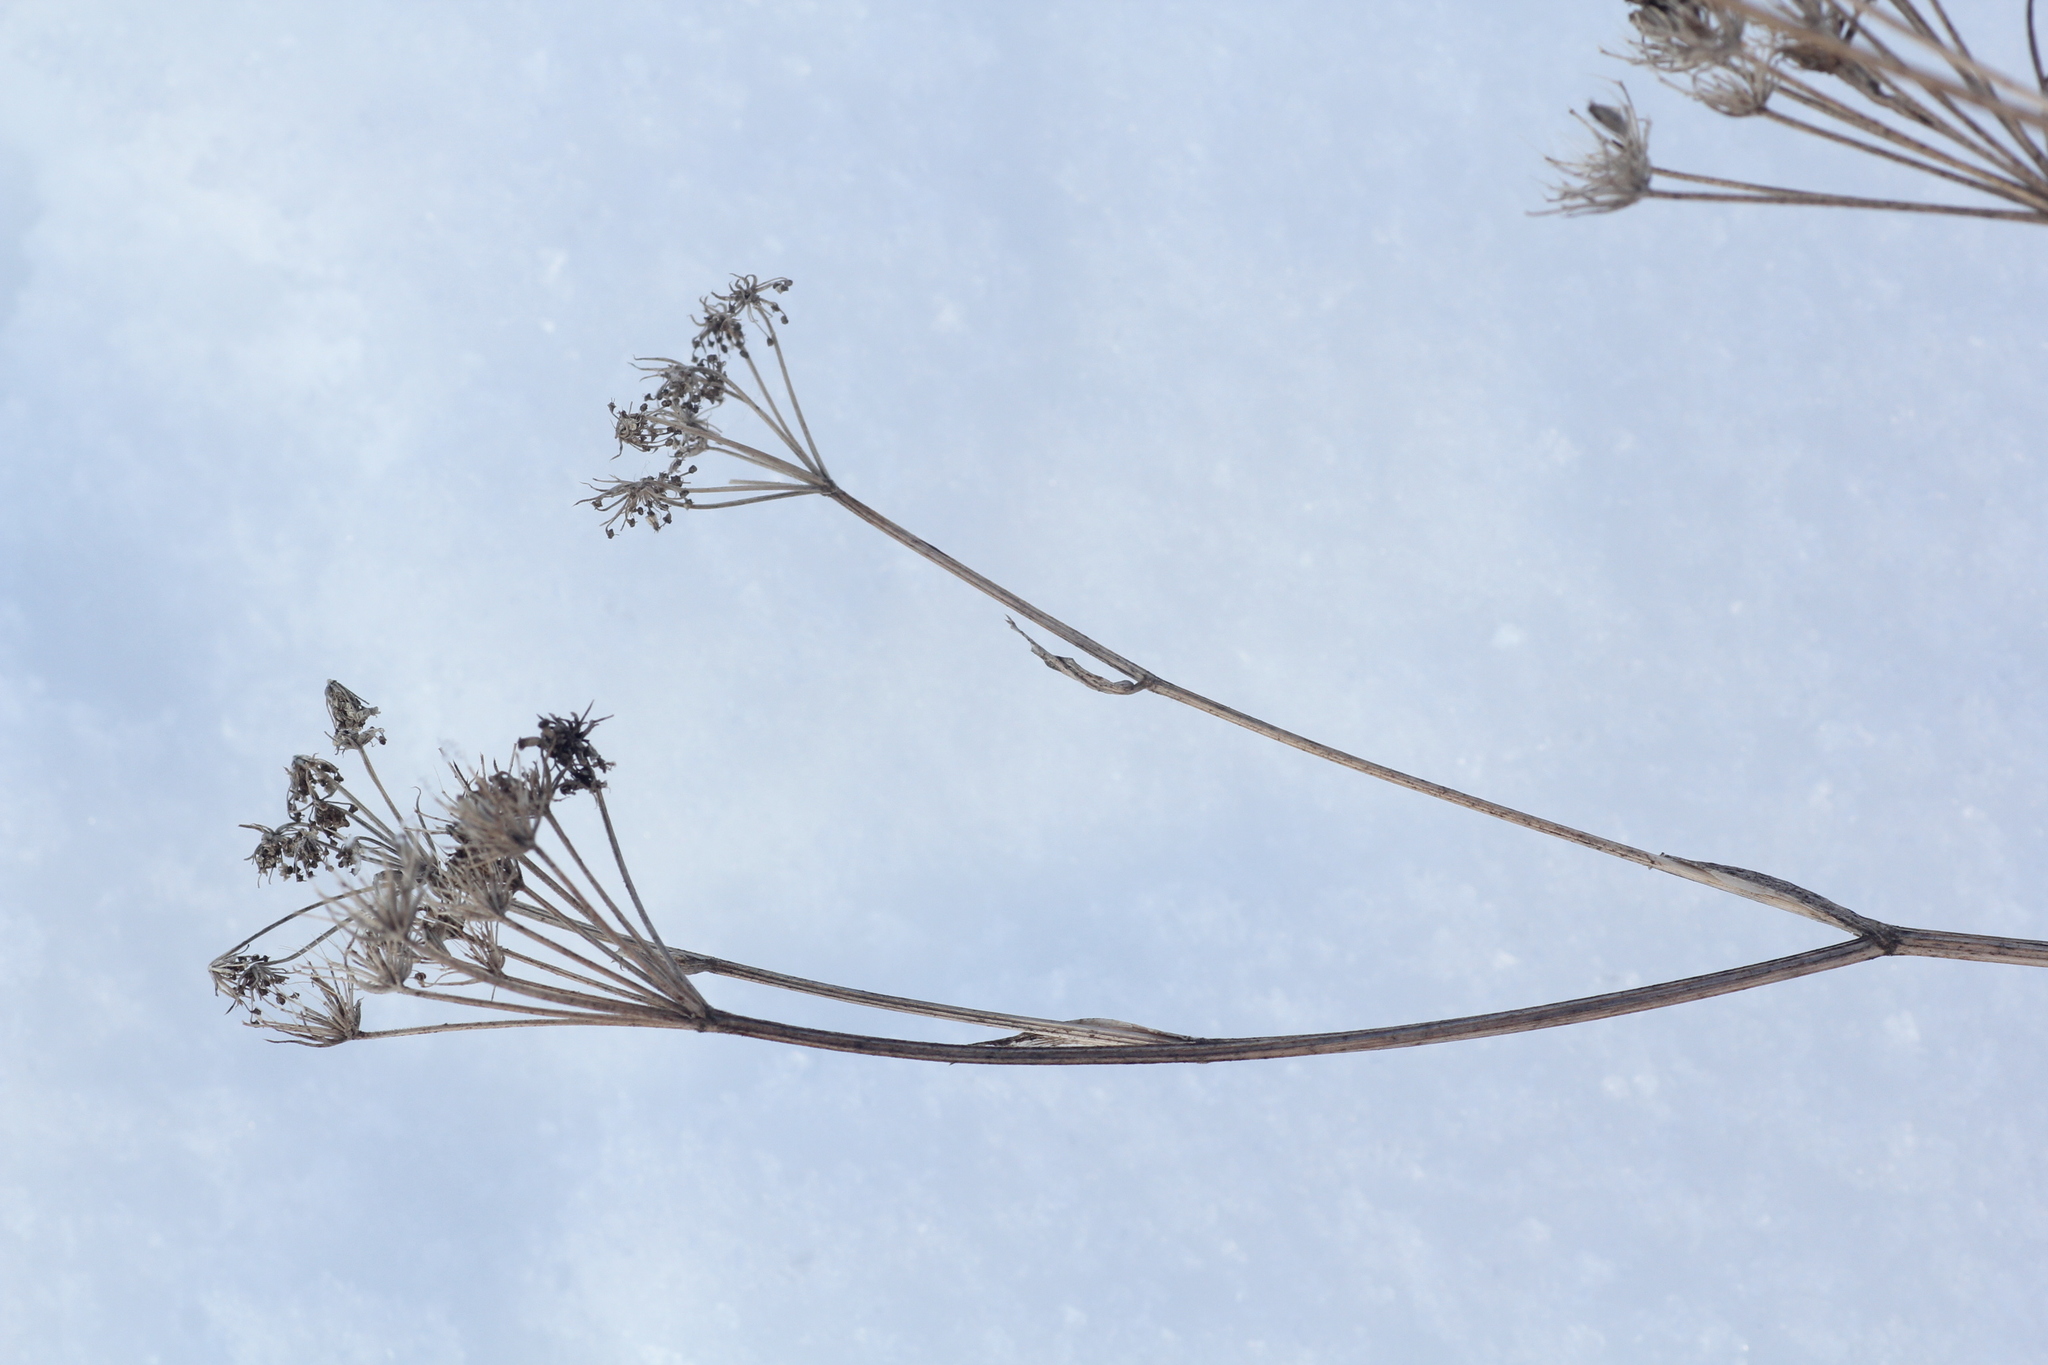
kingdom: Plantae
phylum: Tracheophyta
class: Magnoliopsida
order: Apiales
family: Apiaceae
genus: Kitagawia
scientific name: Kitagawia baicalensis
